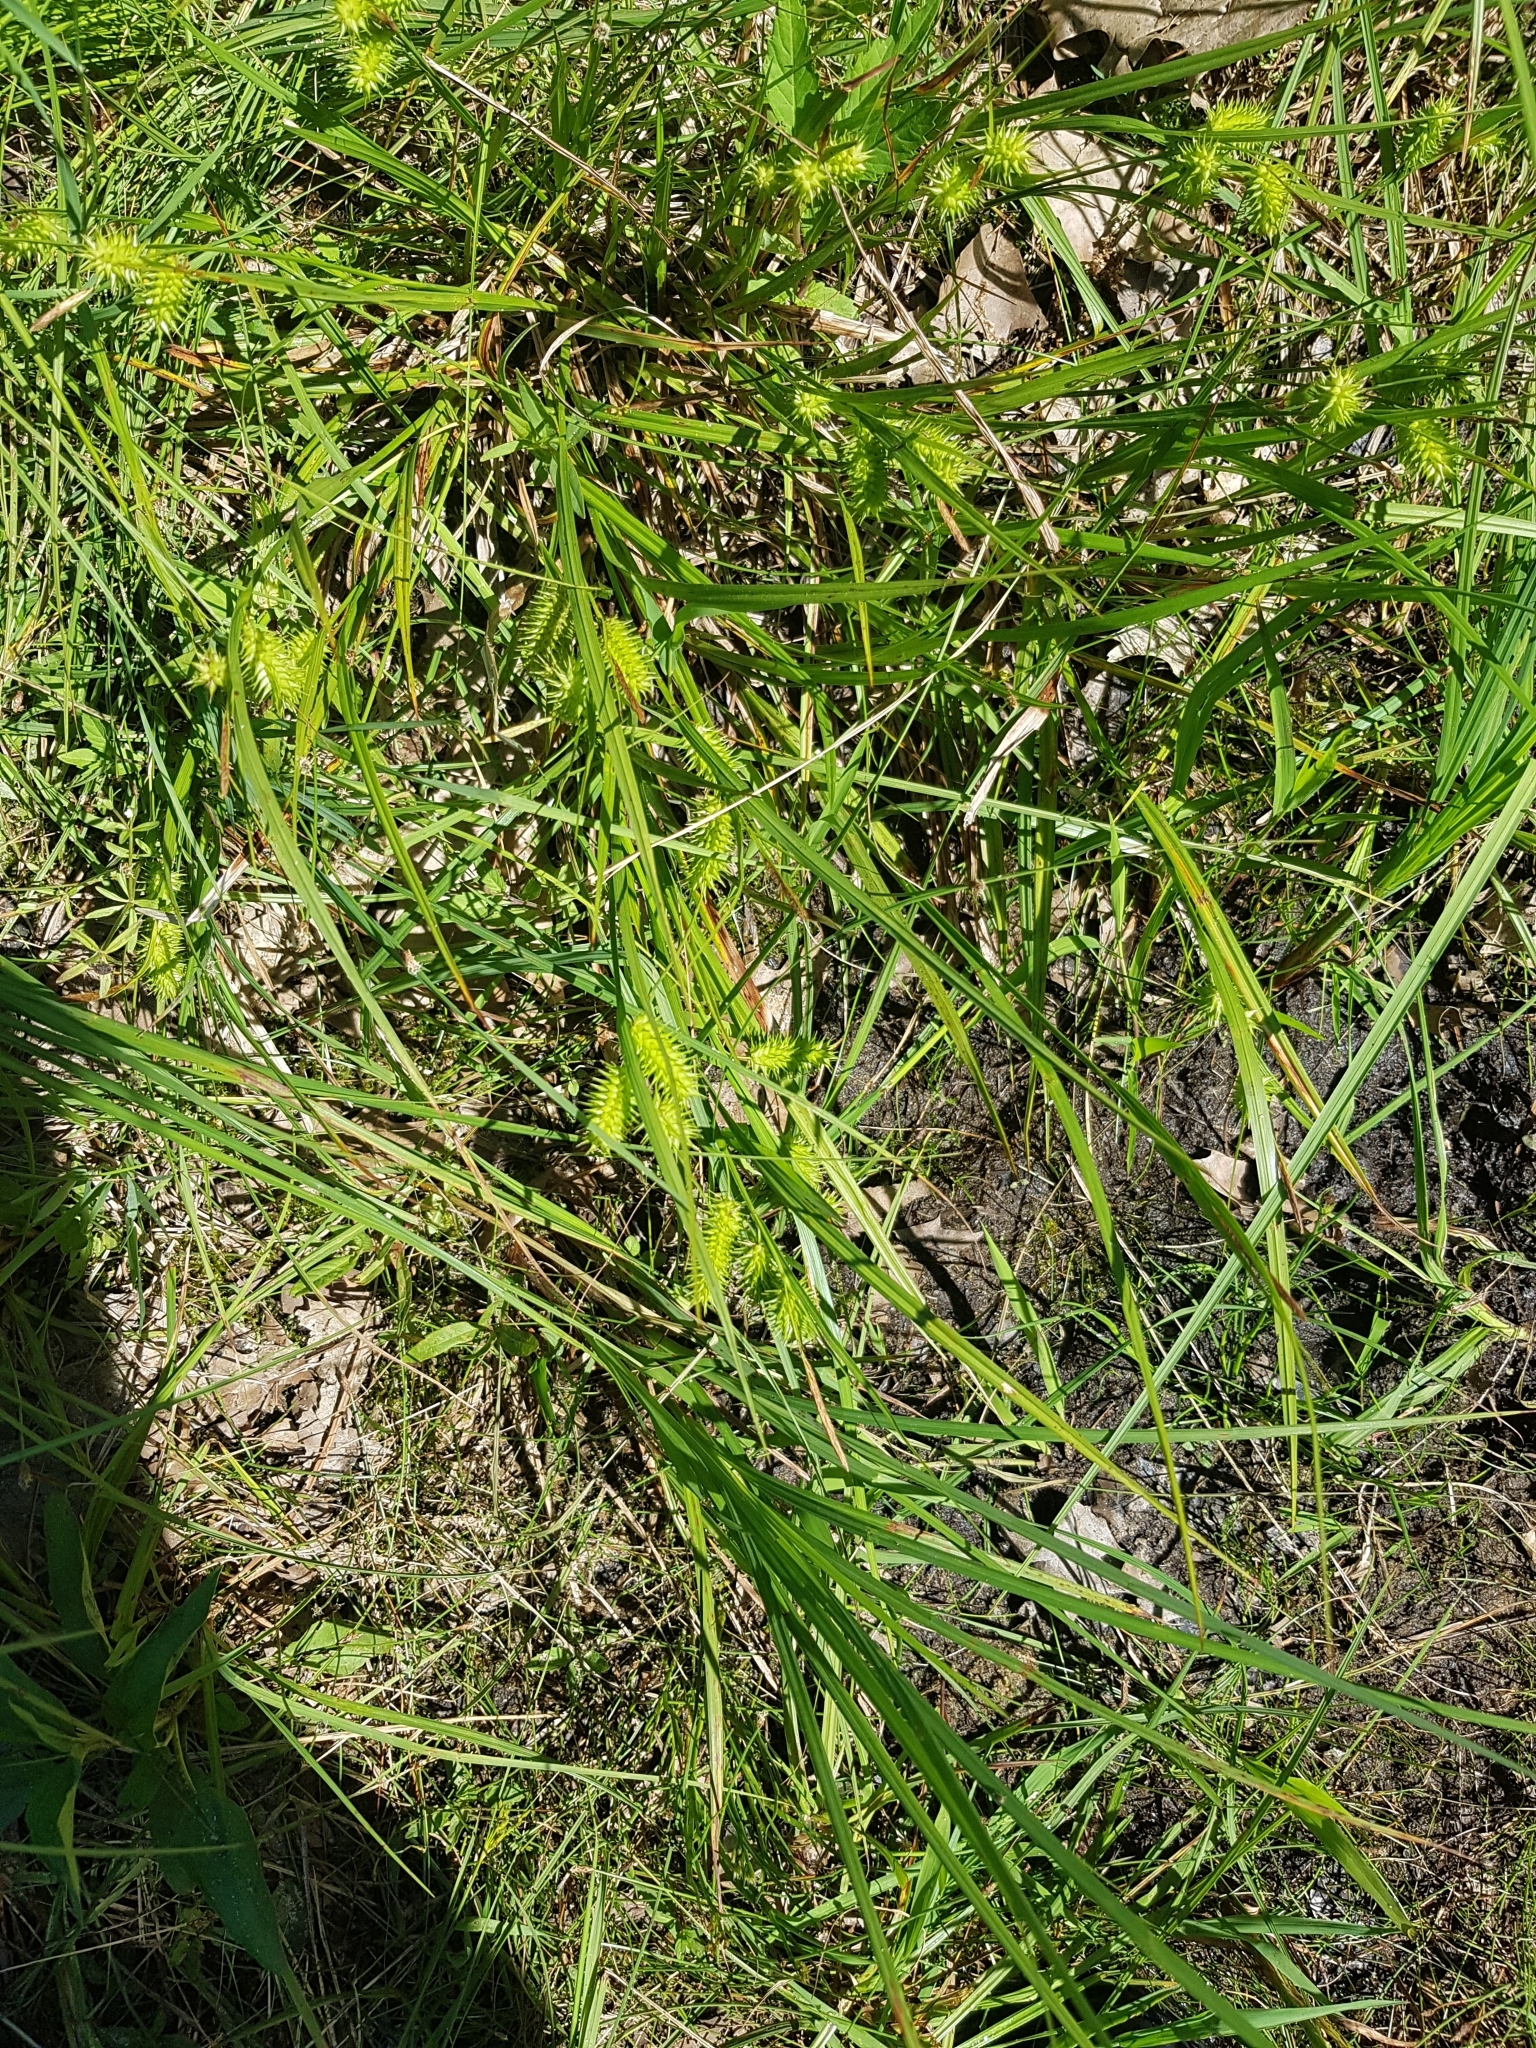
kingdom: Plantae
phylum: Tracheophyta
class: Liliopsida
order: Poales
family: Cyperaceae
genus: Carex
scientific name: Carex hystericina
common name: Bottlebrush sedge
